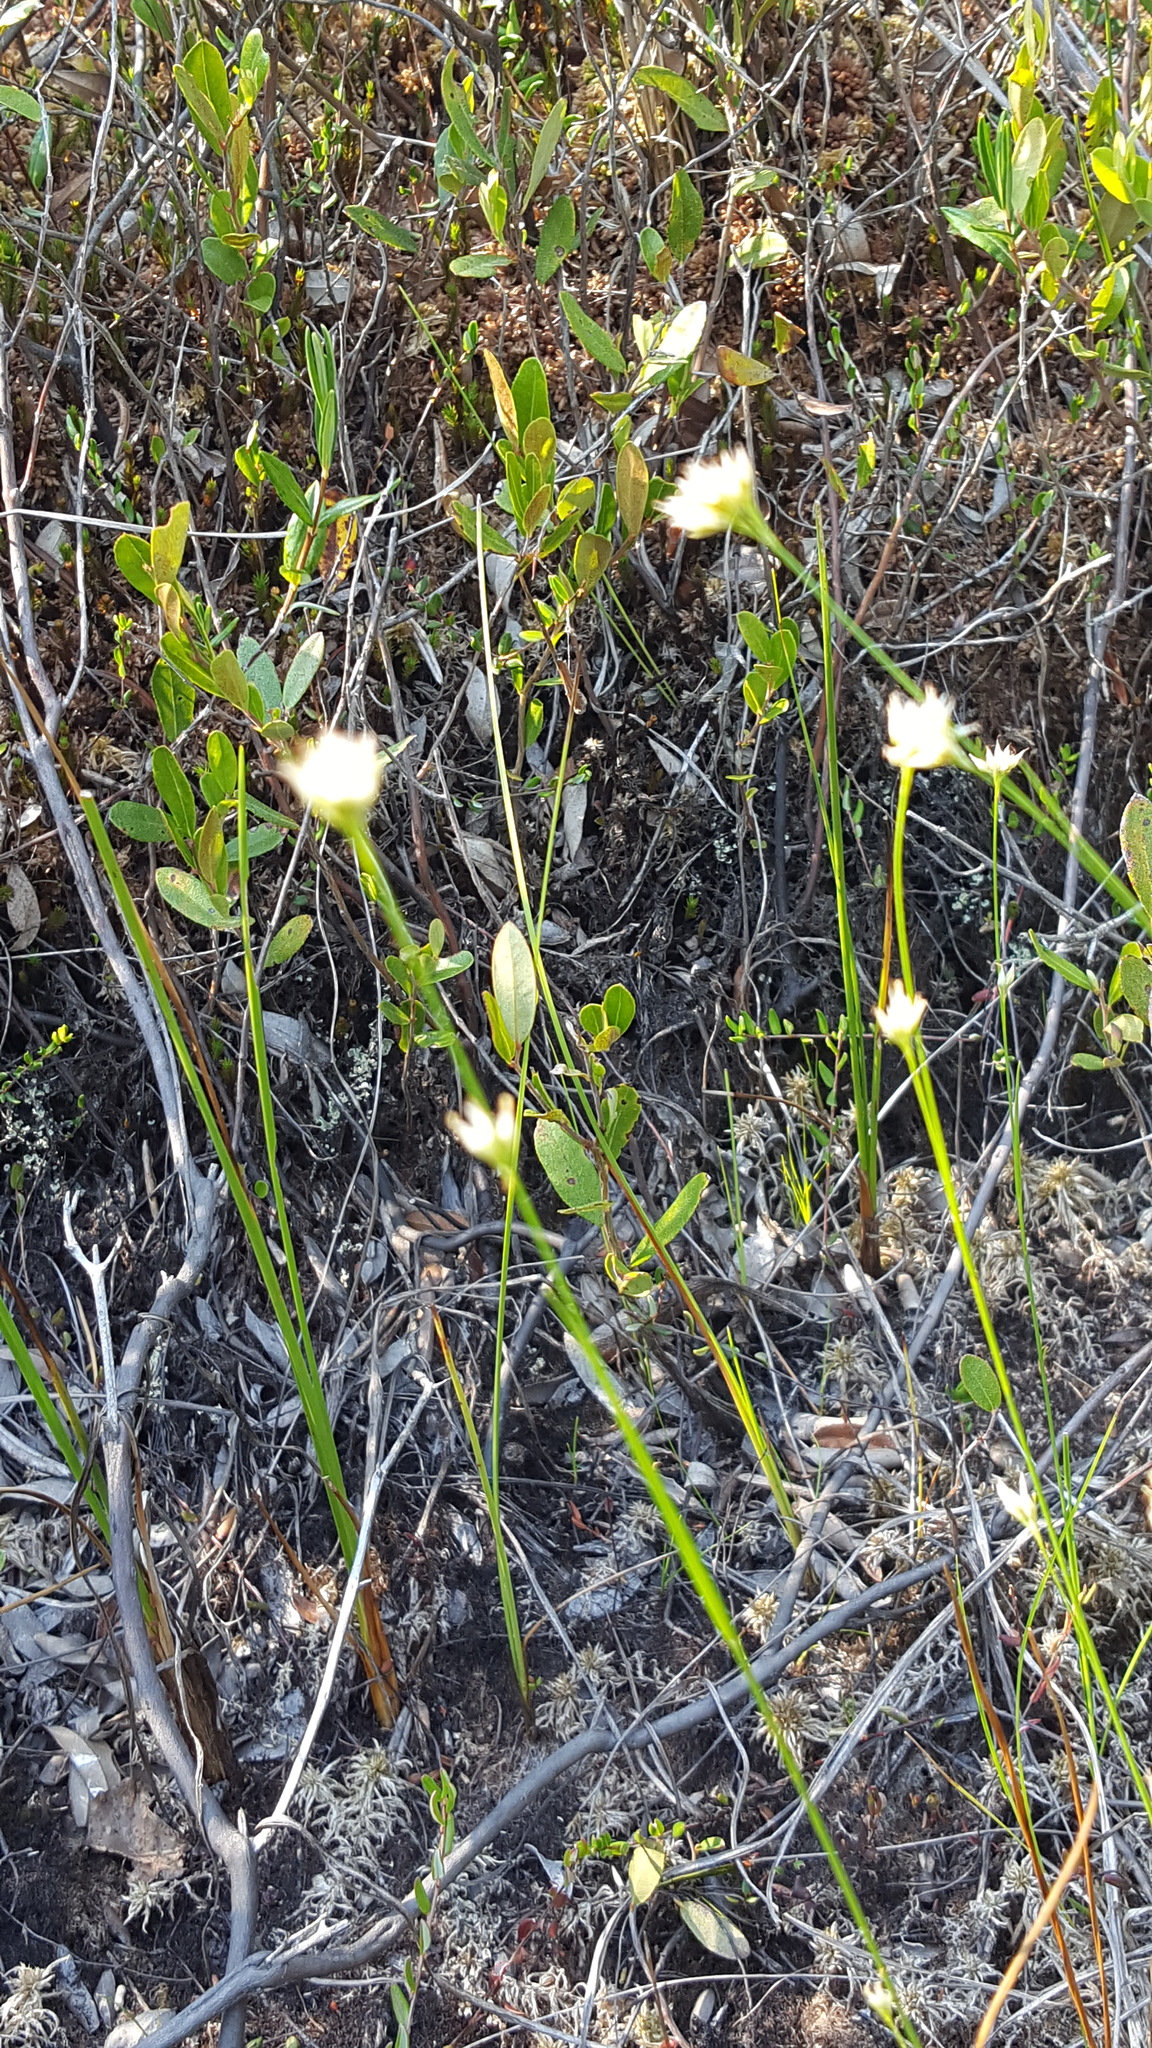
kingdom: Plantae
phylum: Tracheophyta
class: Liliopsida
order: Poales
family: Cyperaceae
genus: Rhynchospora
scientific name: Rhynchospora alba
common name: White beak-sedge
